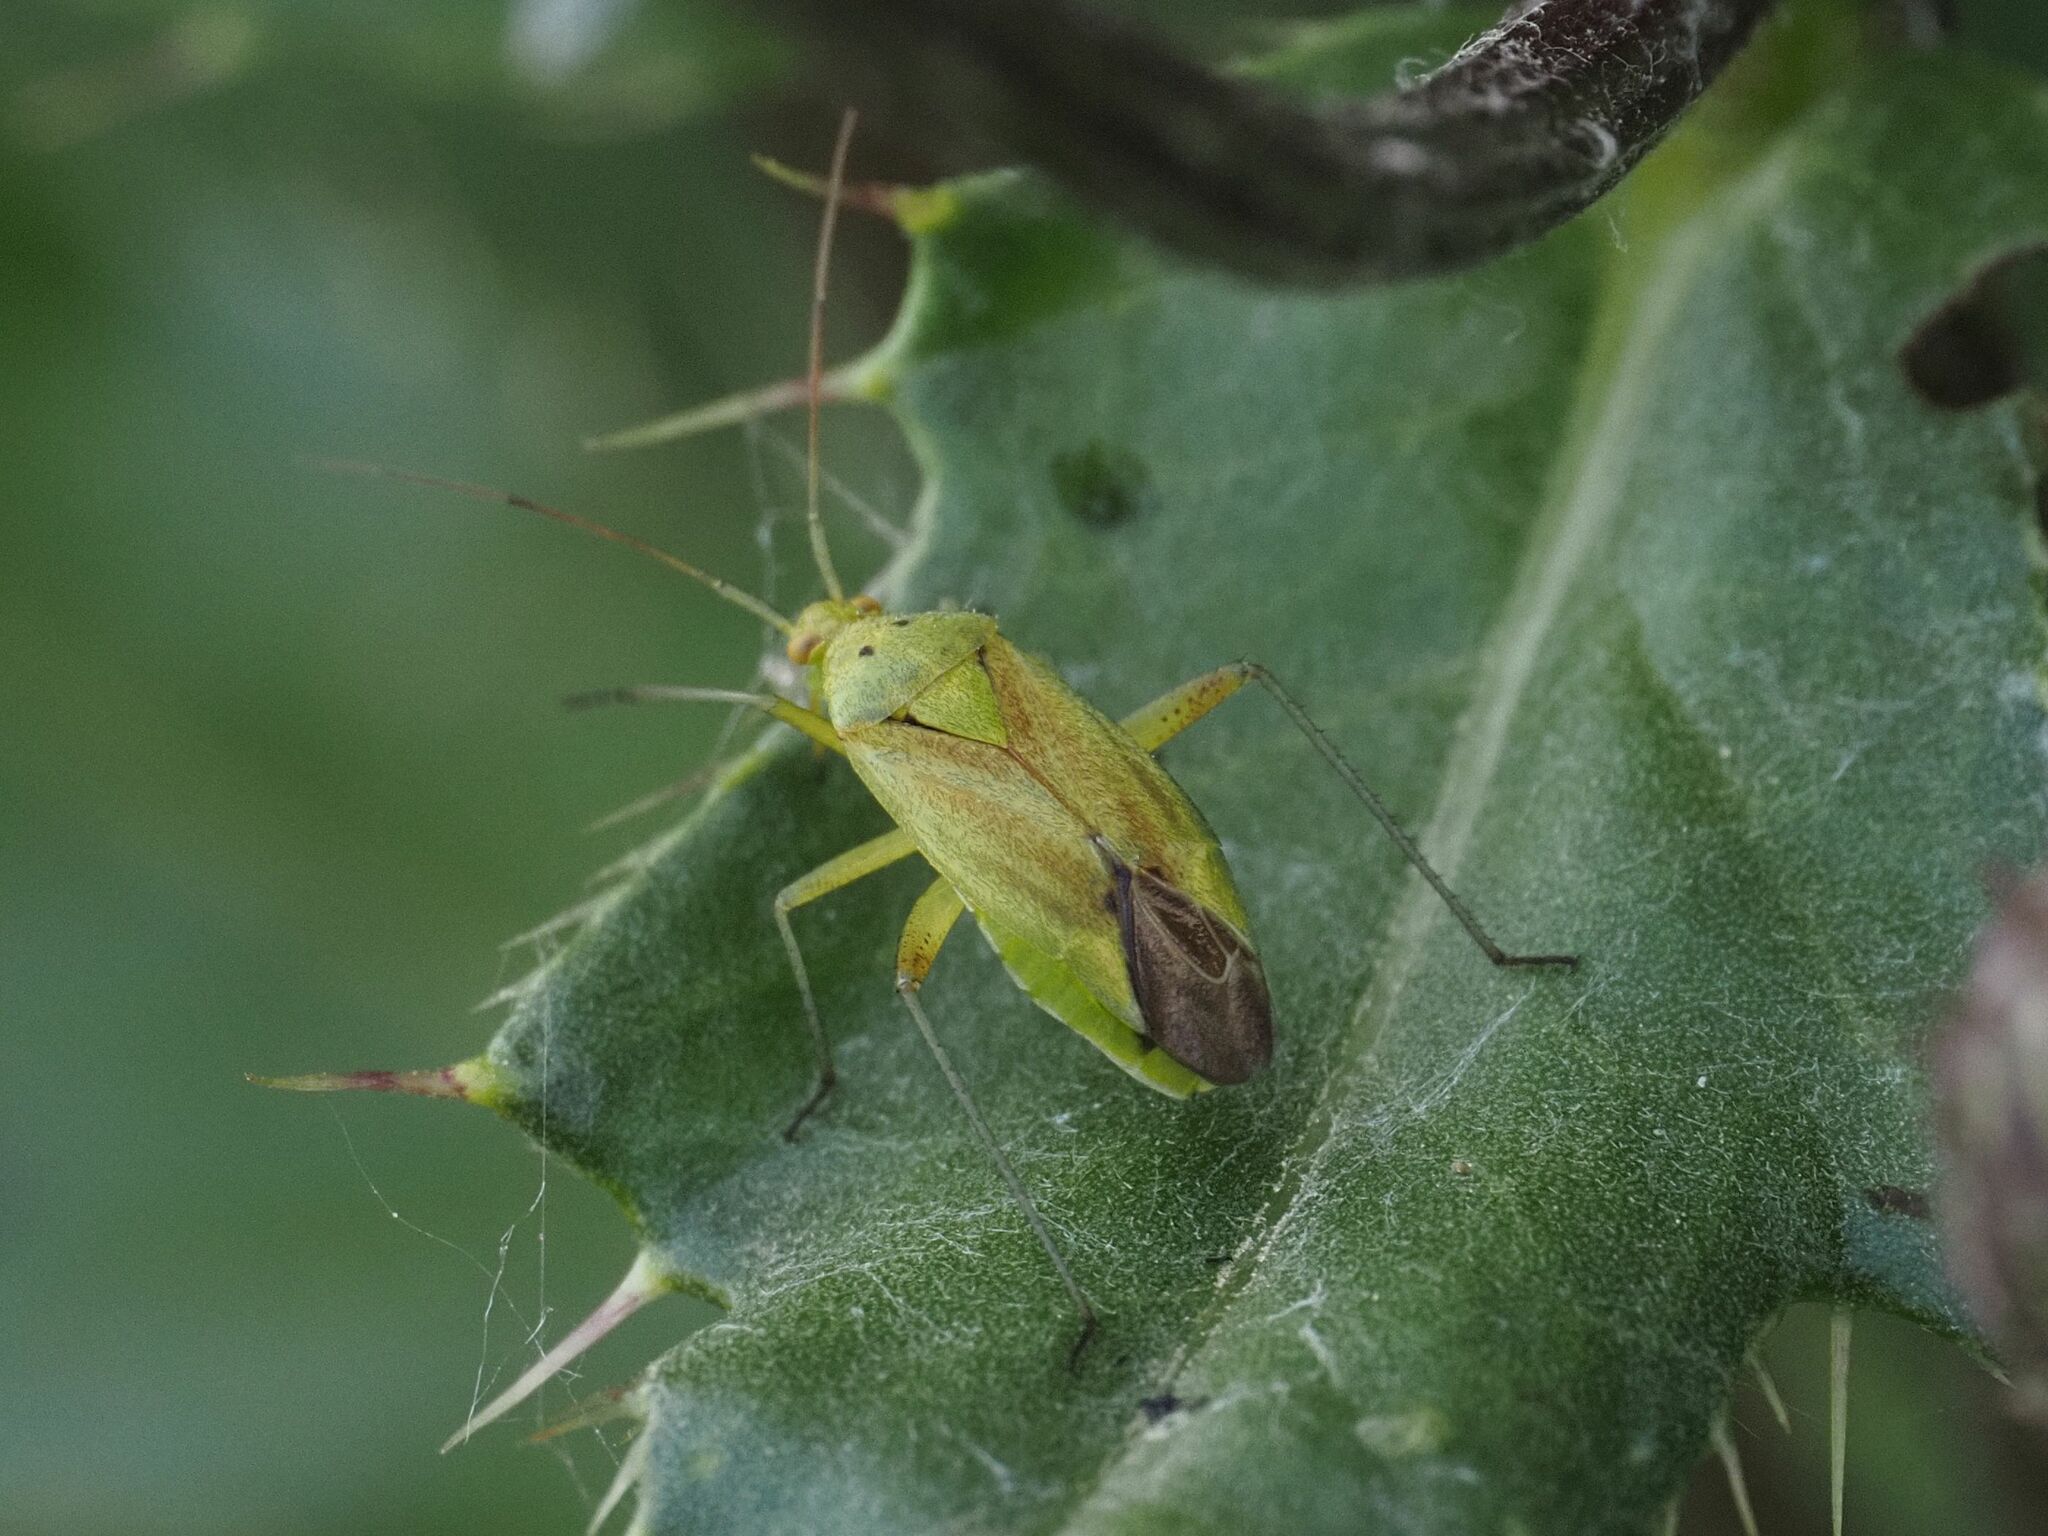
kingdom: Animalia
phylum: Arthropoda
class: Insecta
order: Hemiptera
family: Miridae
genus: Closterotomus
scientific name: Closterotomus norvegicus
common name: Plant bug
